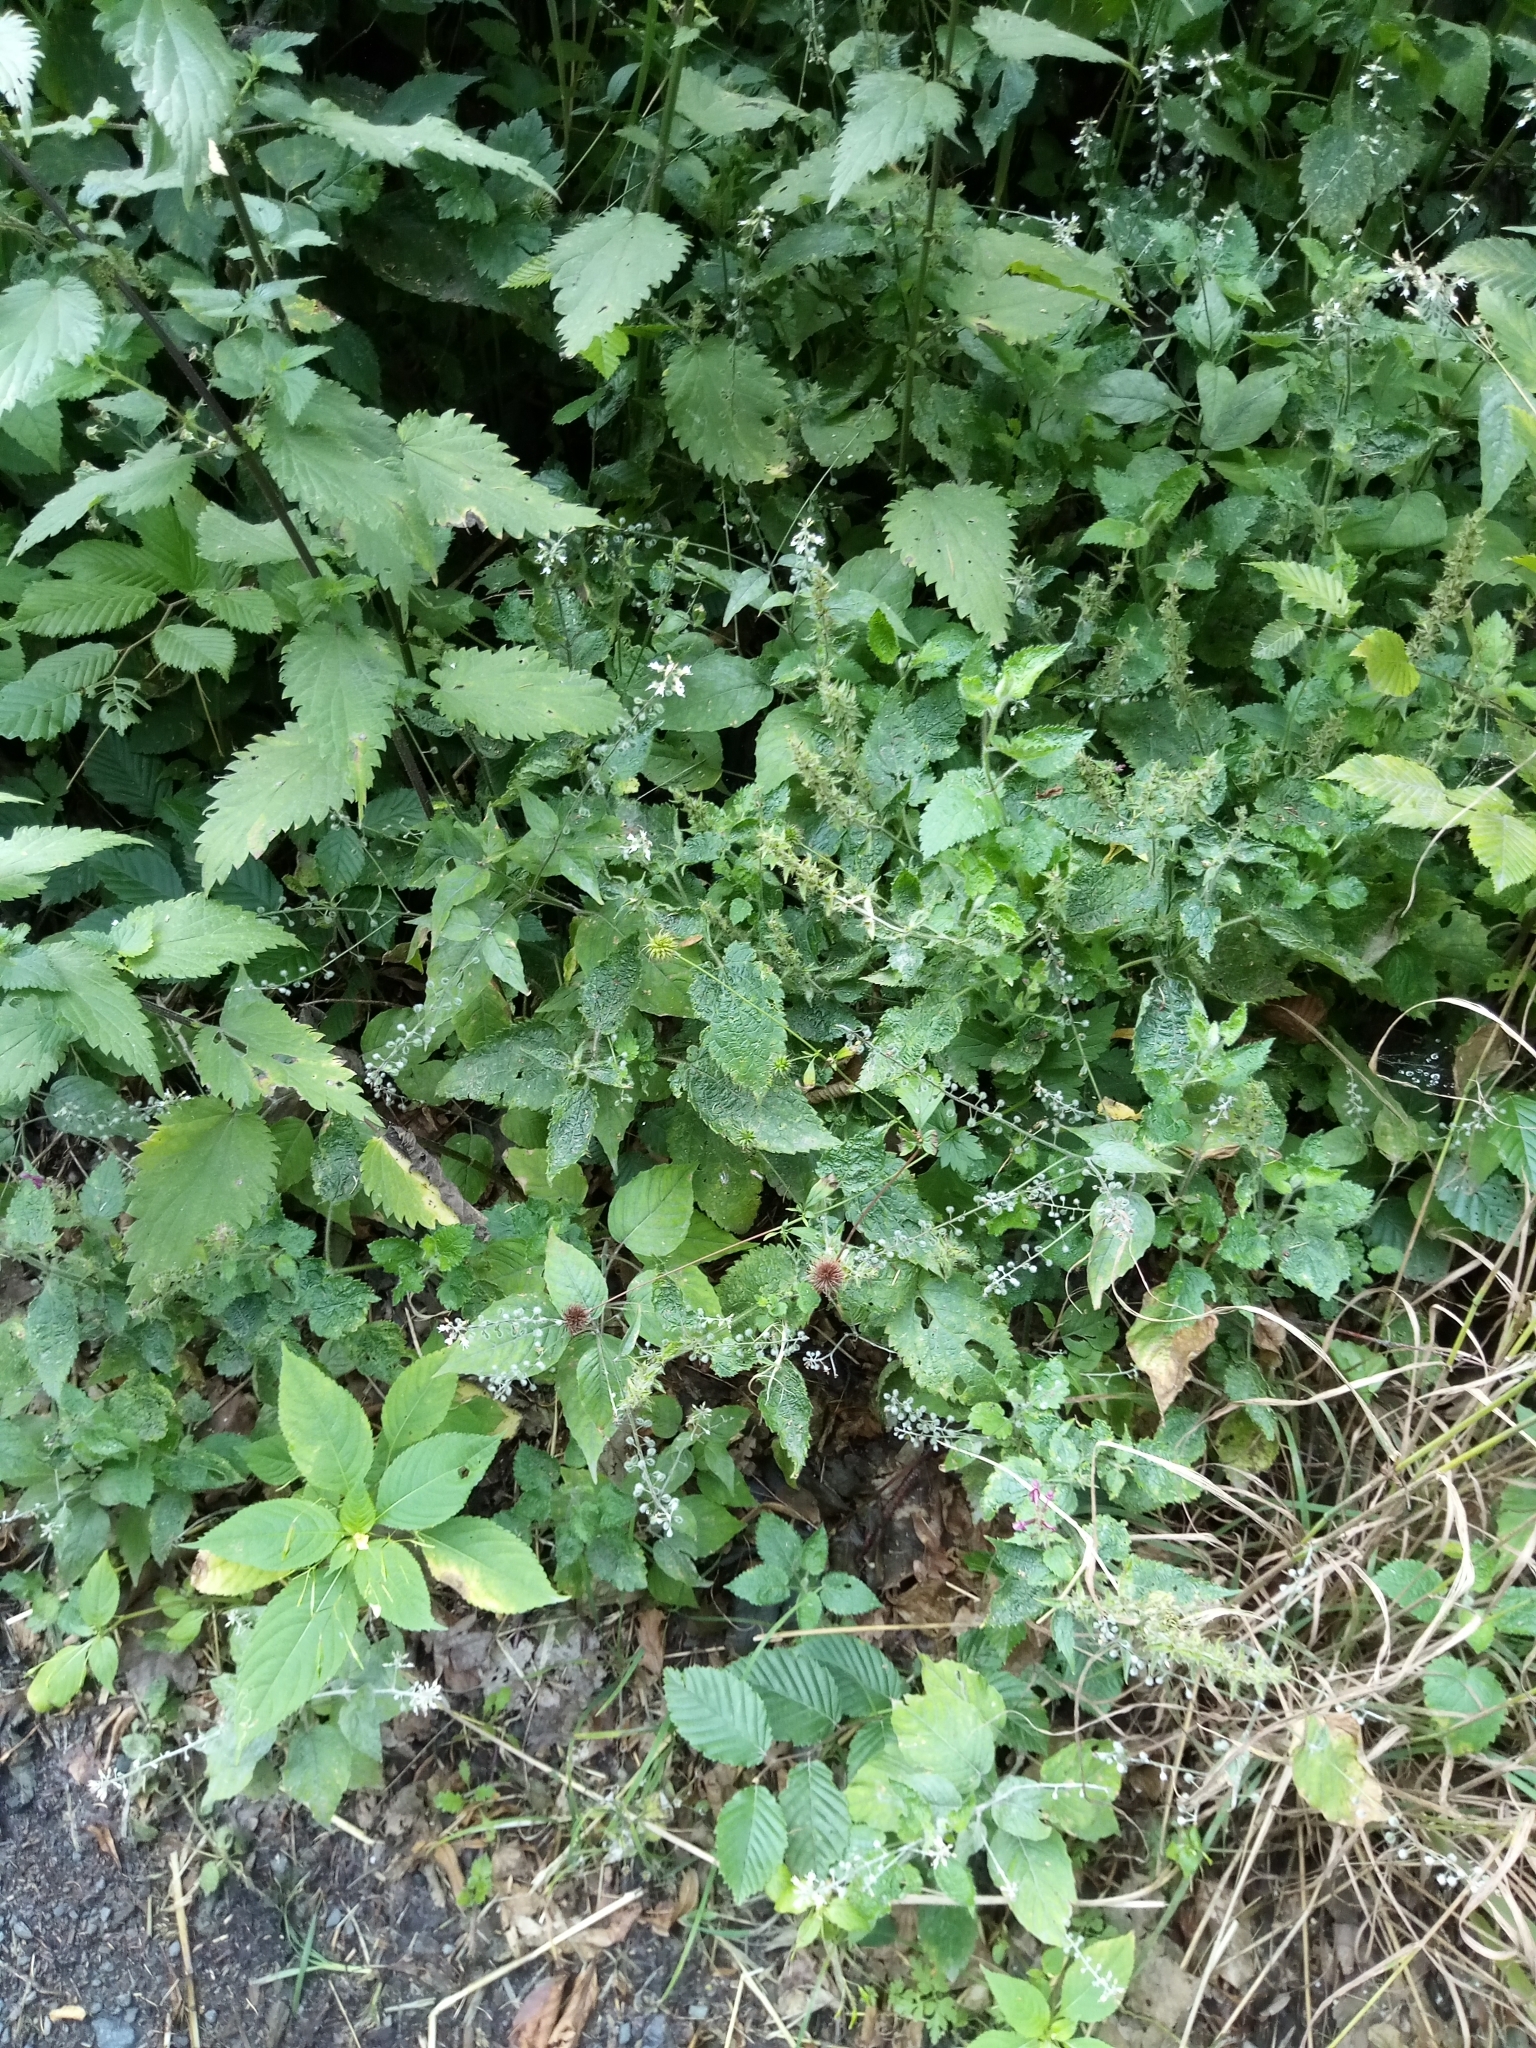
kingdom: Plantae
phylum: Tracheophyta
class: Magnoliopsida
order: Myrtales
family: Onagraceae
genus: Circaea
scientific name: Circaea lutetiana
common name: Enchanter's-nightshade
